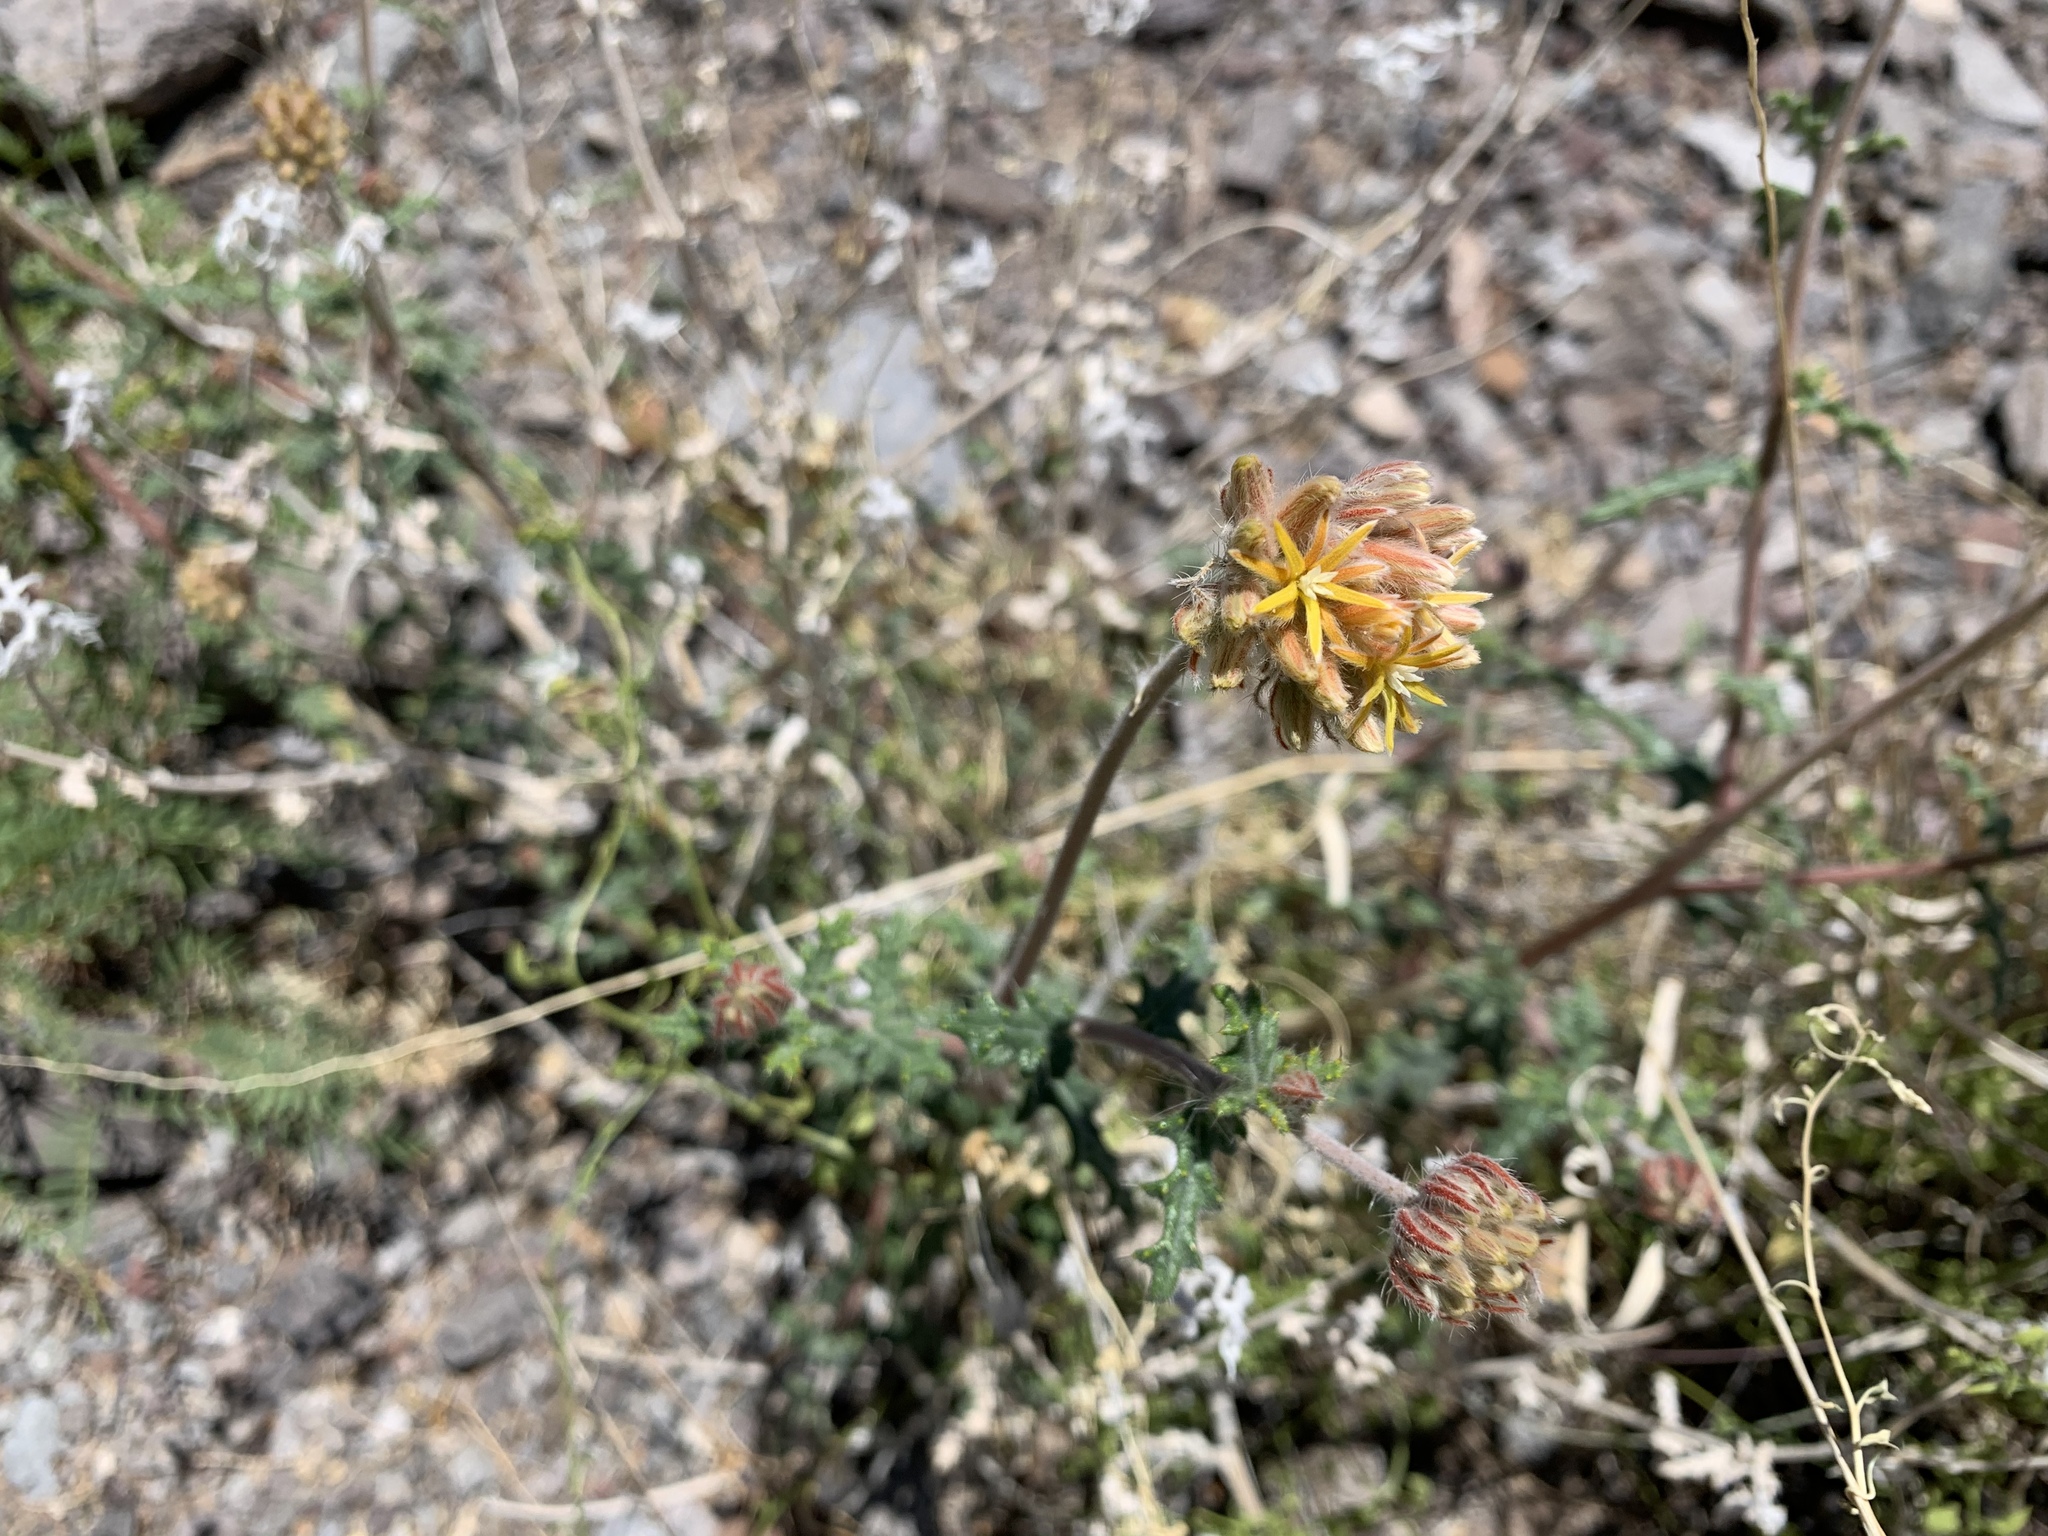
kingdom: Plantae
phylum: Tracheophyta
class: Magnoliopsida
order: Cornales
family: Loasaceae
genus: Cevallia
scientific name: Cevallia sinuata
